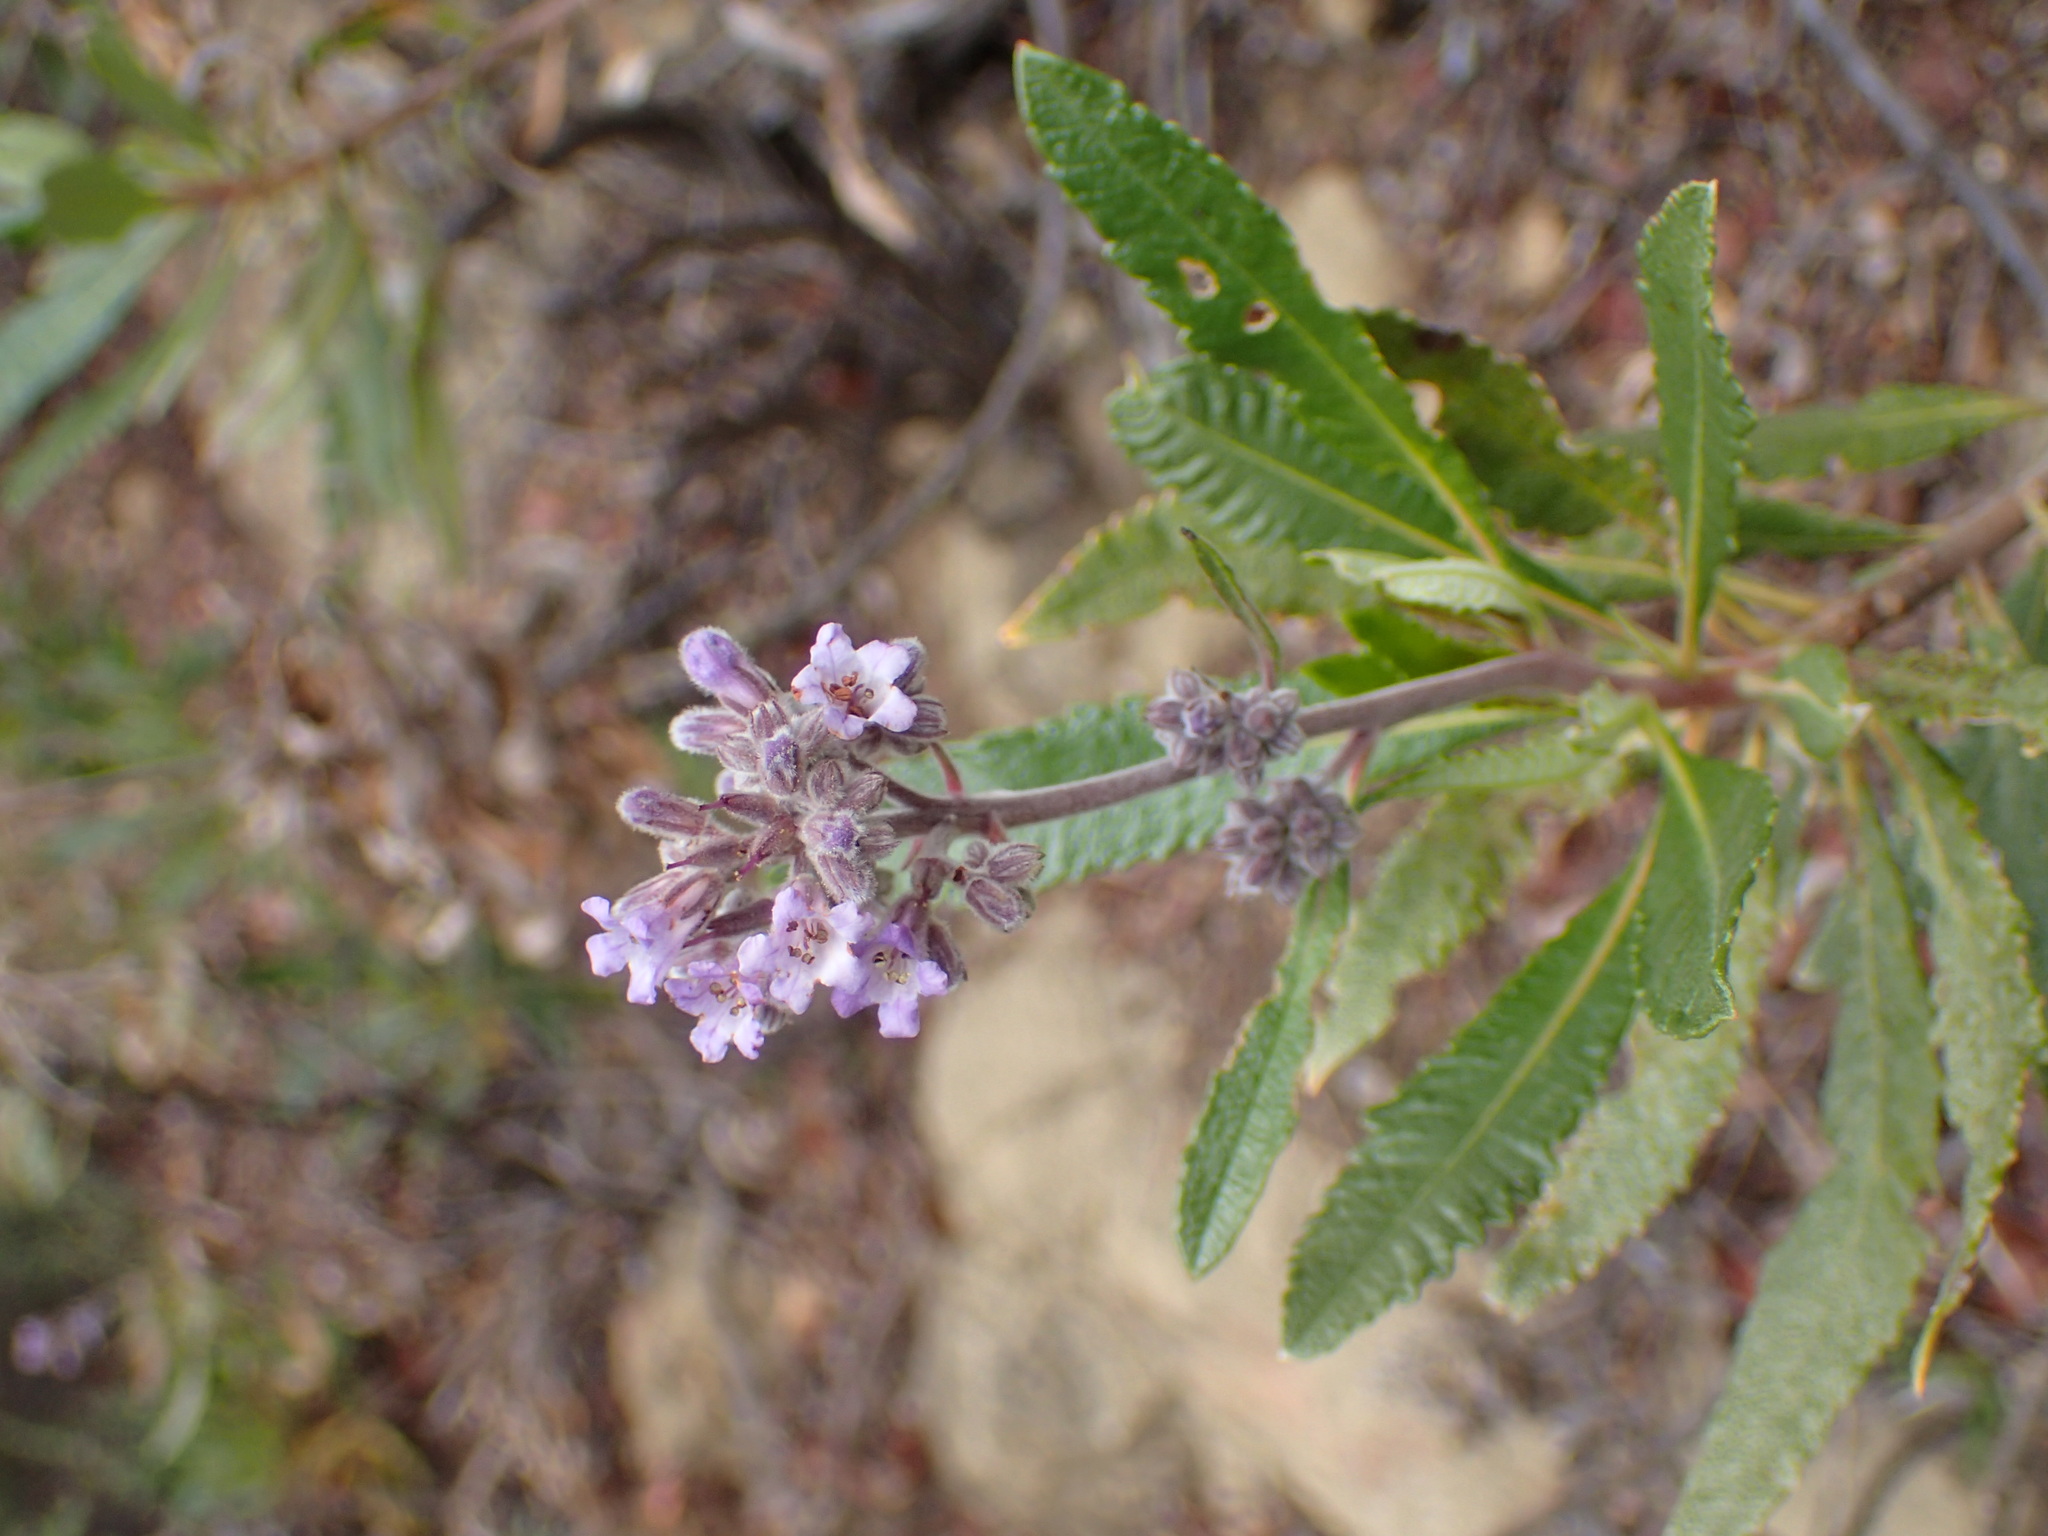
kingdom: Plantae
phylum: Tracheophyta
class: Magnoliopsida
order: Boraginales
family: Namaceae
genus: Eriodictyon
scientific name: Eriodictyon crassifolium
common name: Thick-leaf yerba-santa
